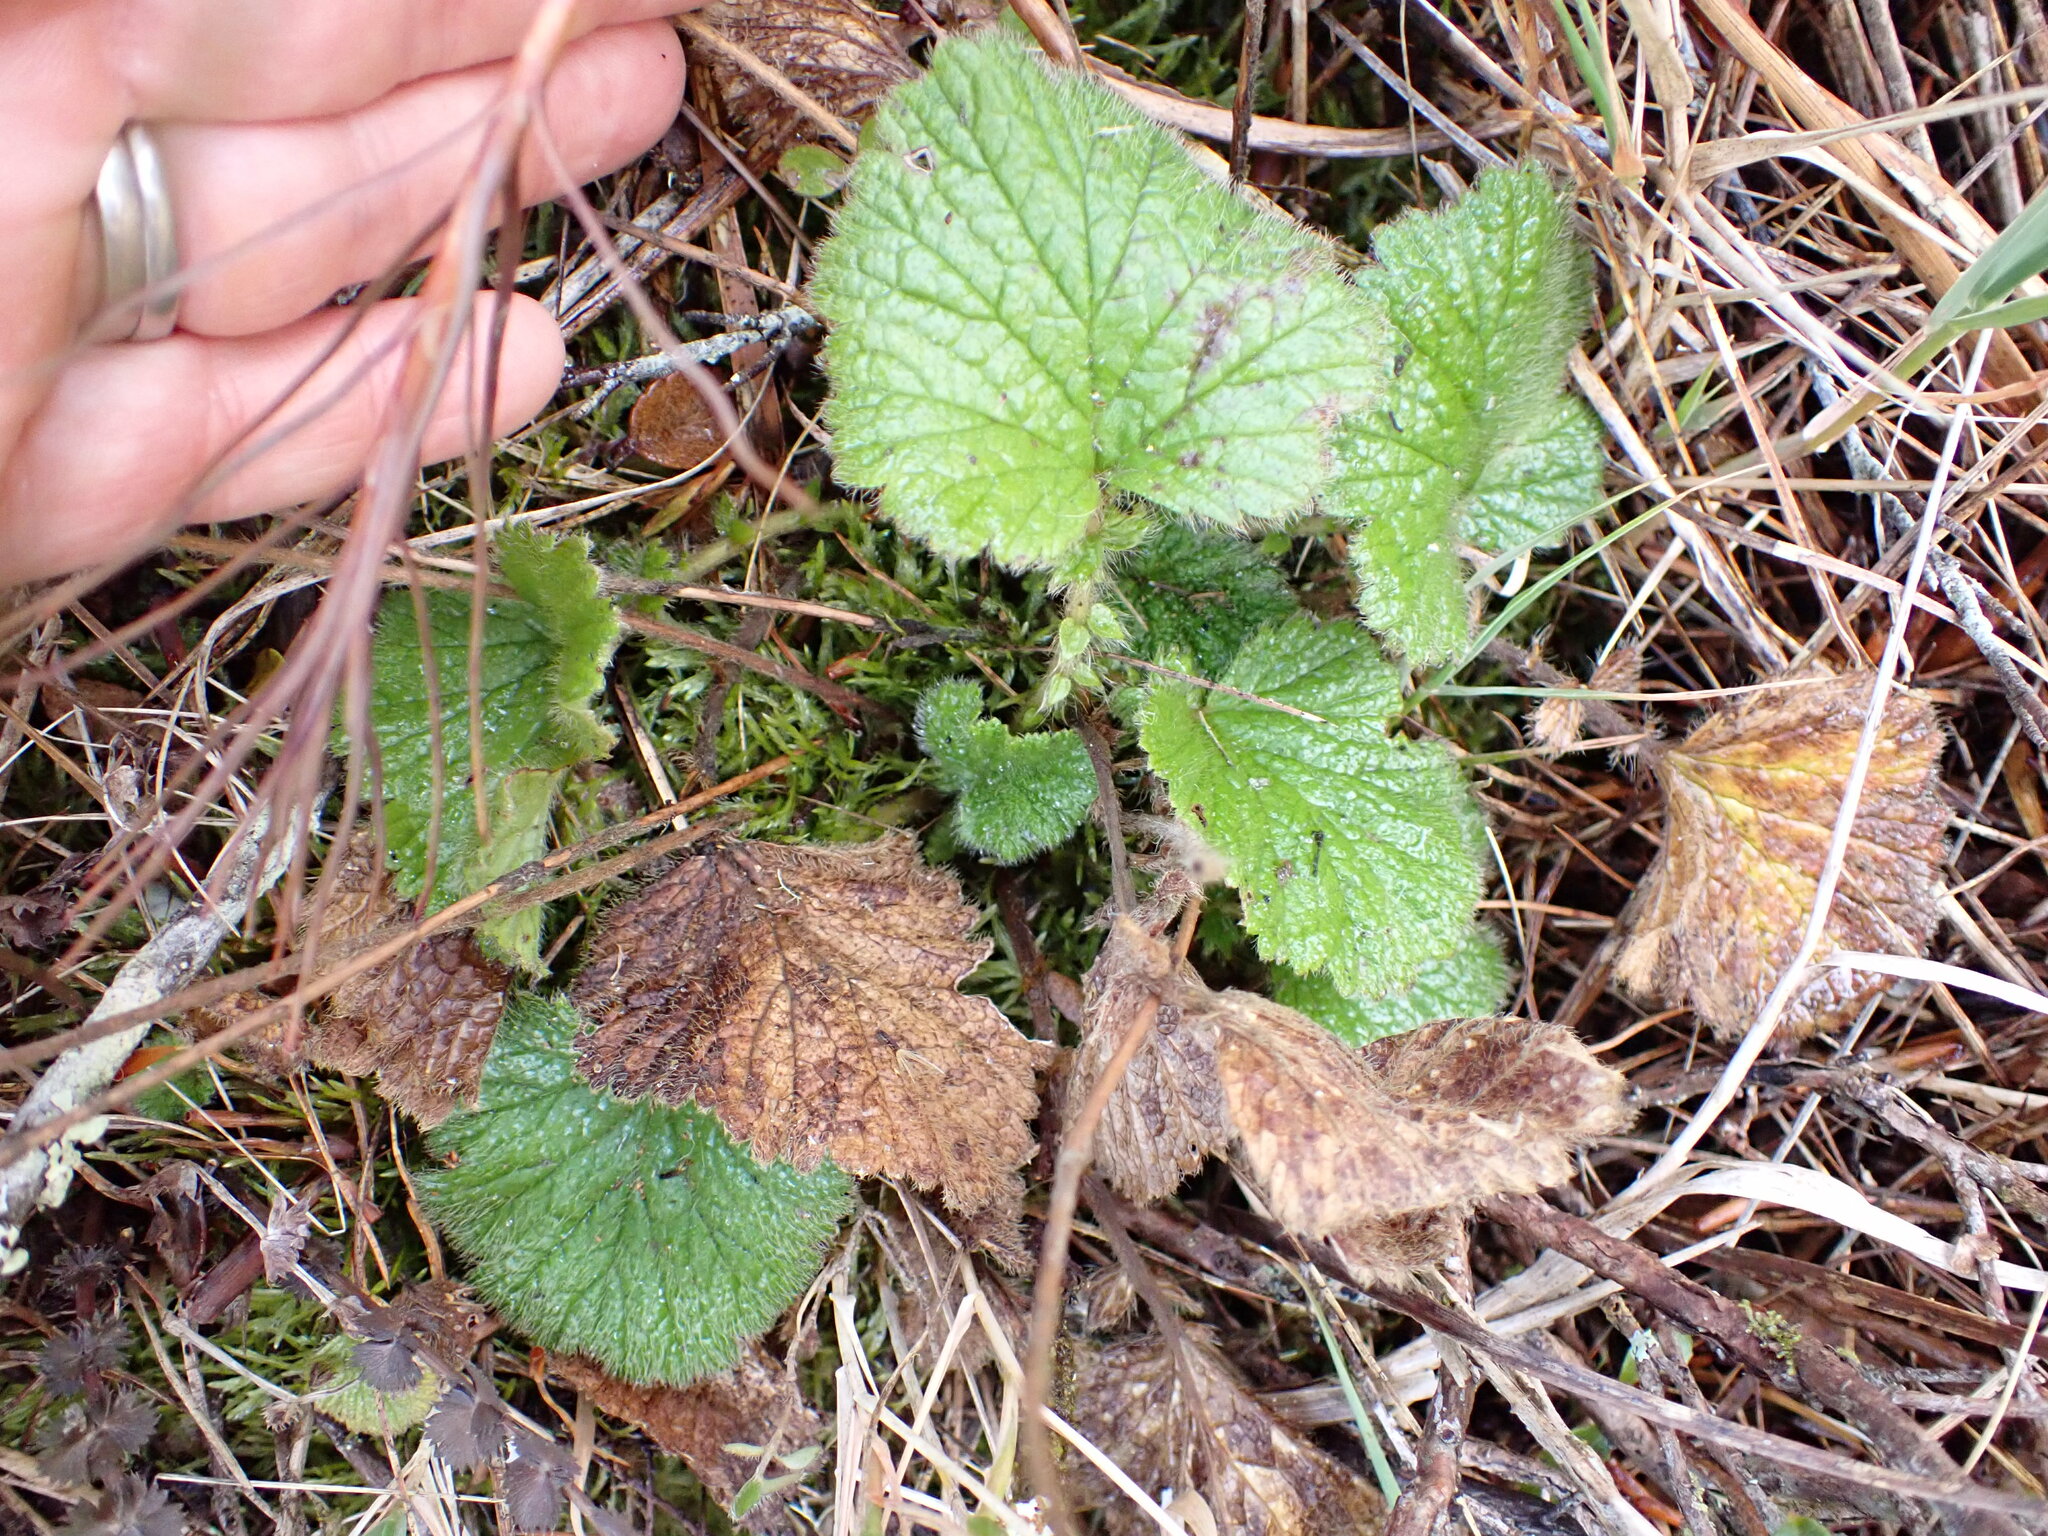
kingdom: Plantae
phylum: Tracheophyta
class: Magnoliopsida
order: Rosales
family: Rosaceae
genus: Geum
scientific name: Geum cockaynei
